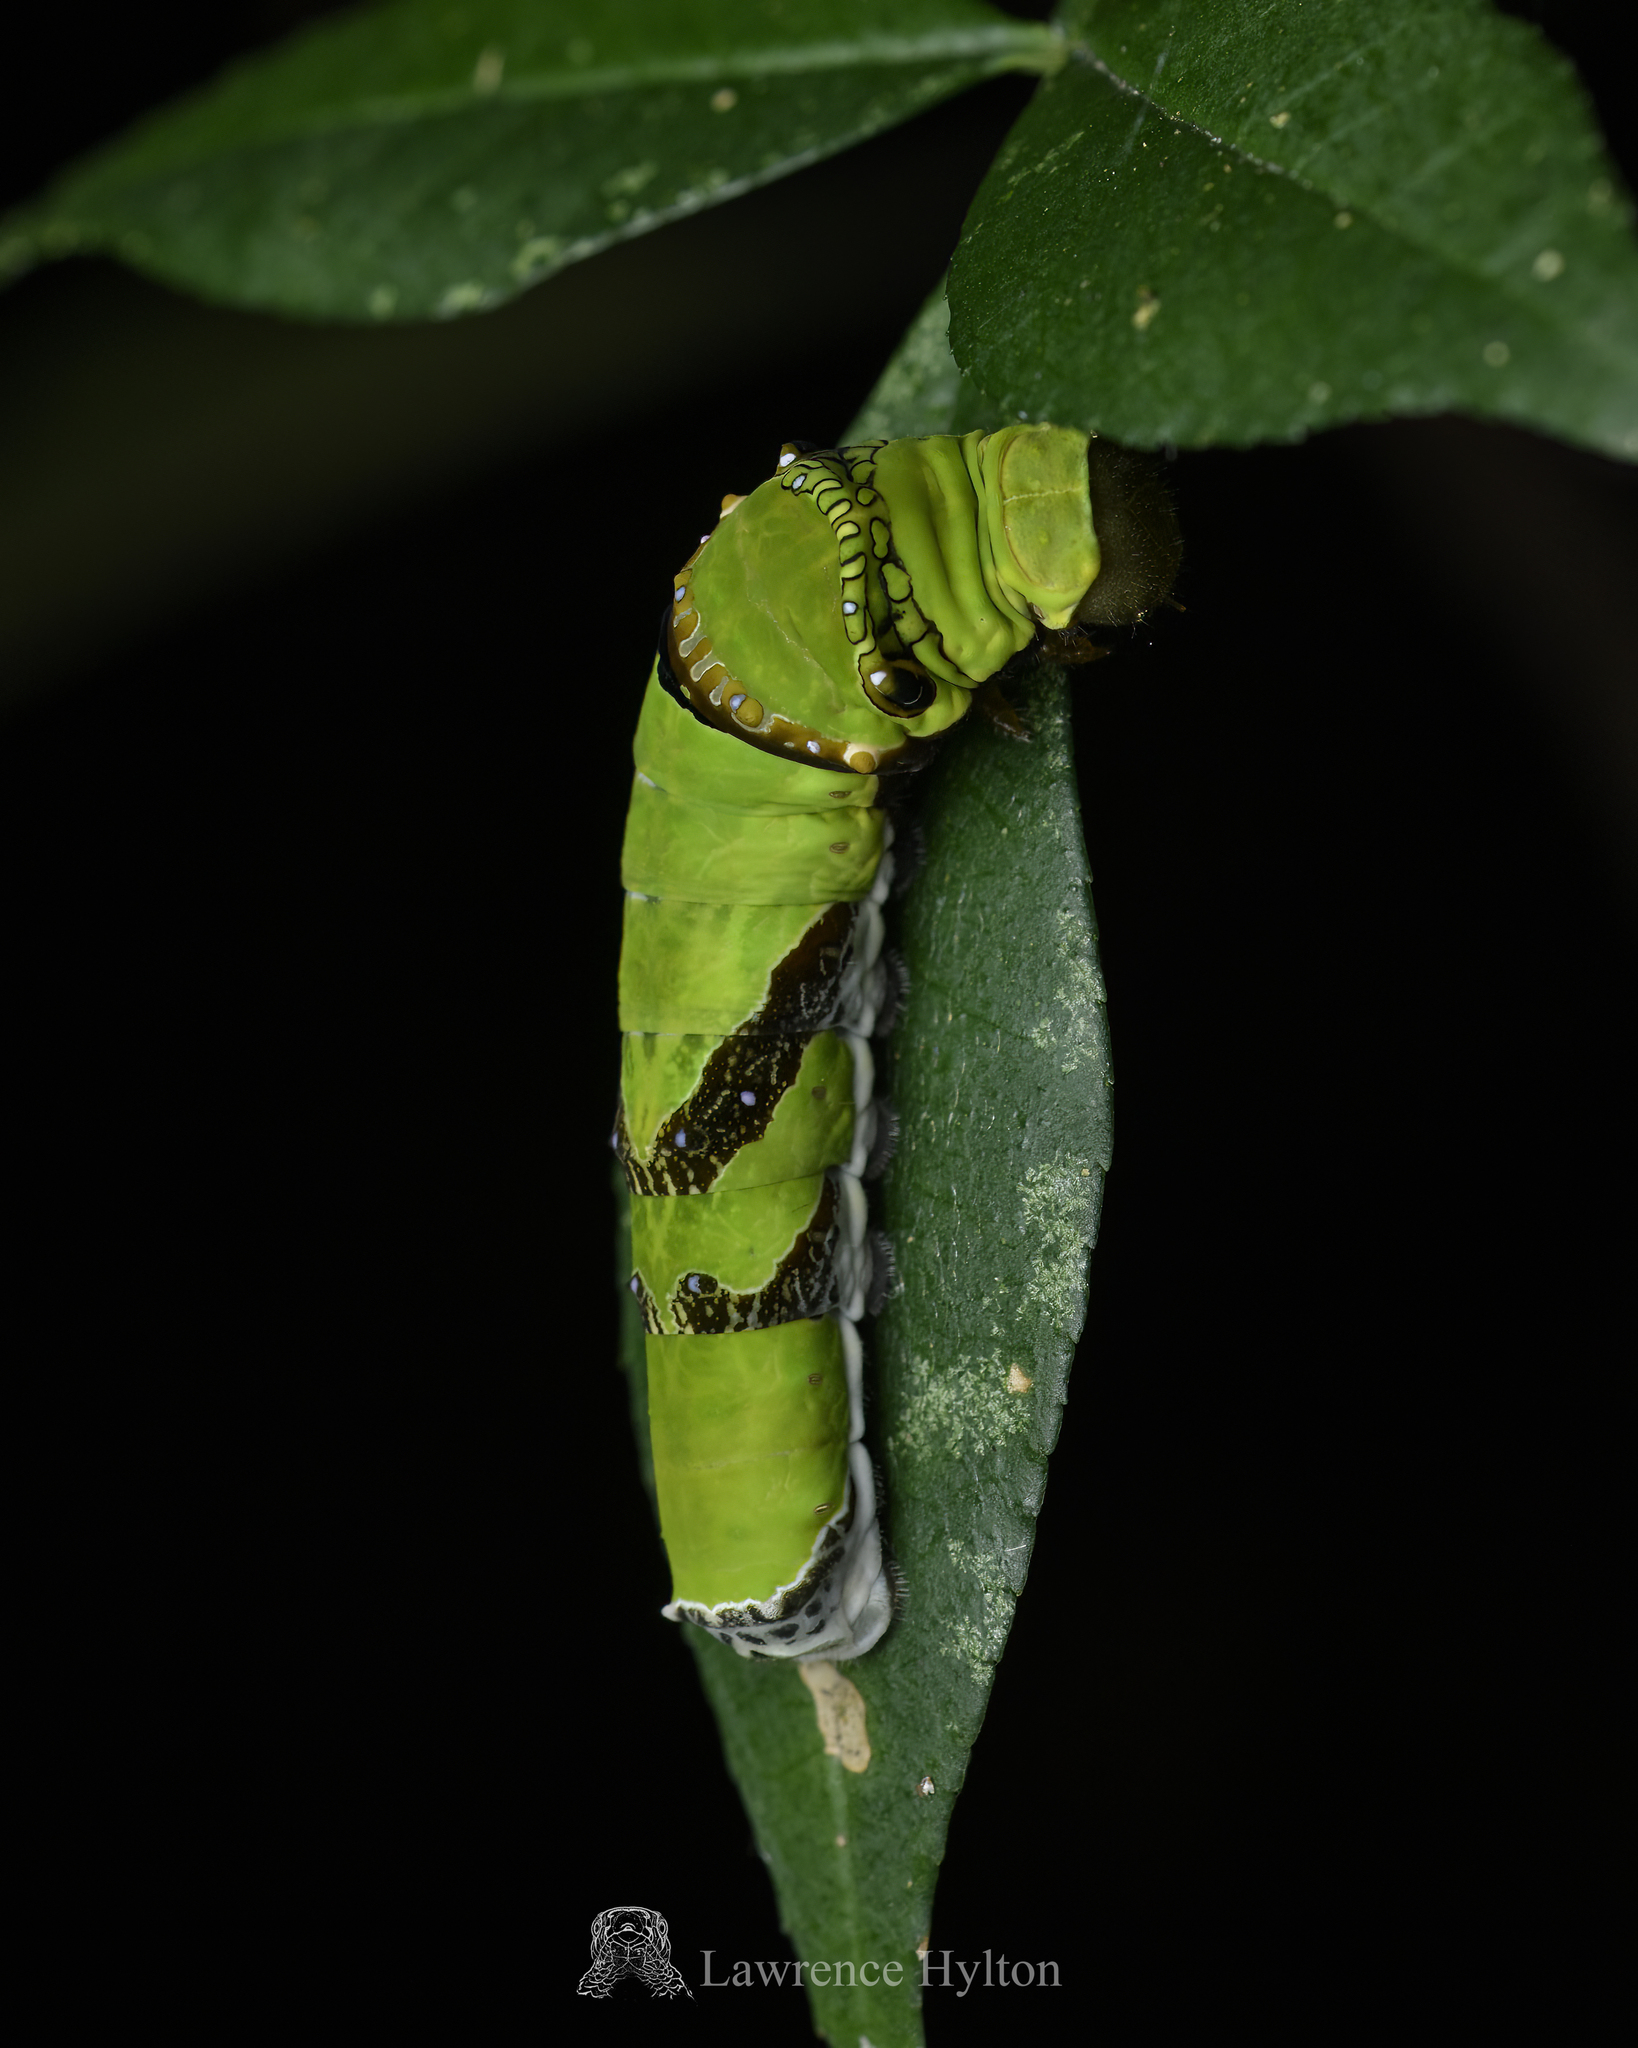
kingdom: Animalia
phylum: Arthropoda
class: Insecta
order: Lepidoptera
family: Papilionidae
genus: Papilio
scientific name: Papilio helenus
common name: Red helen
